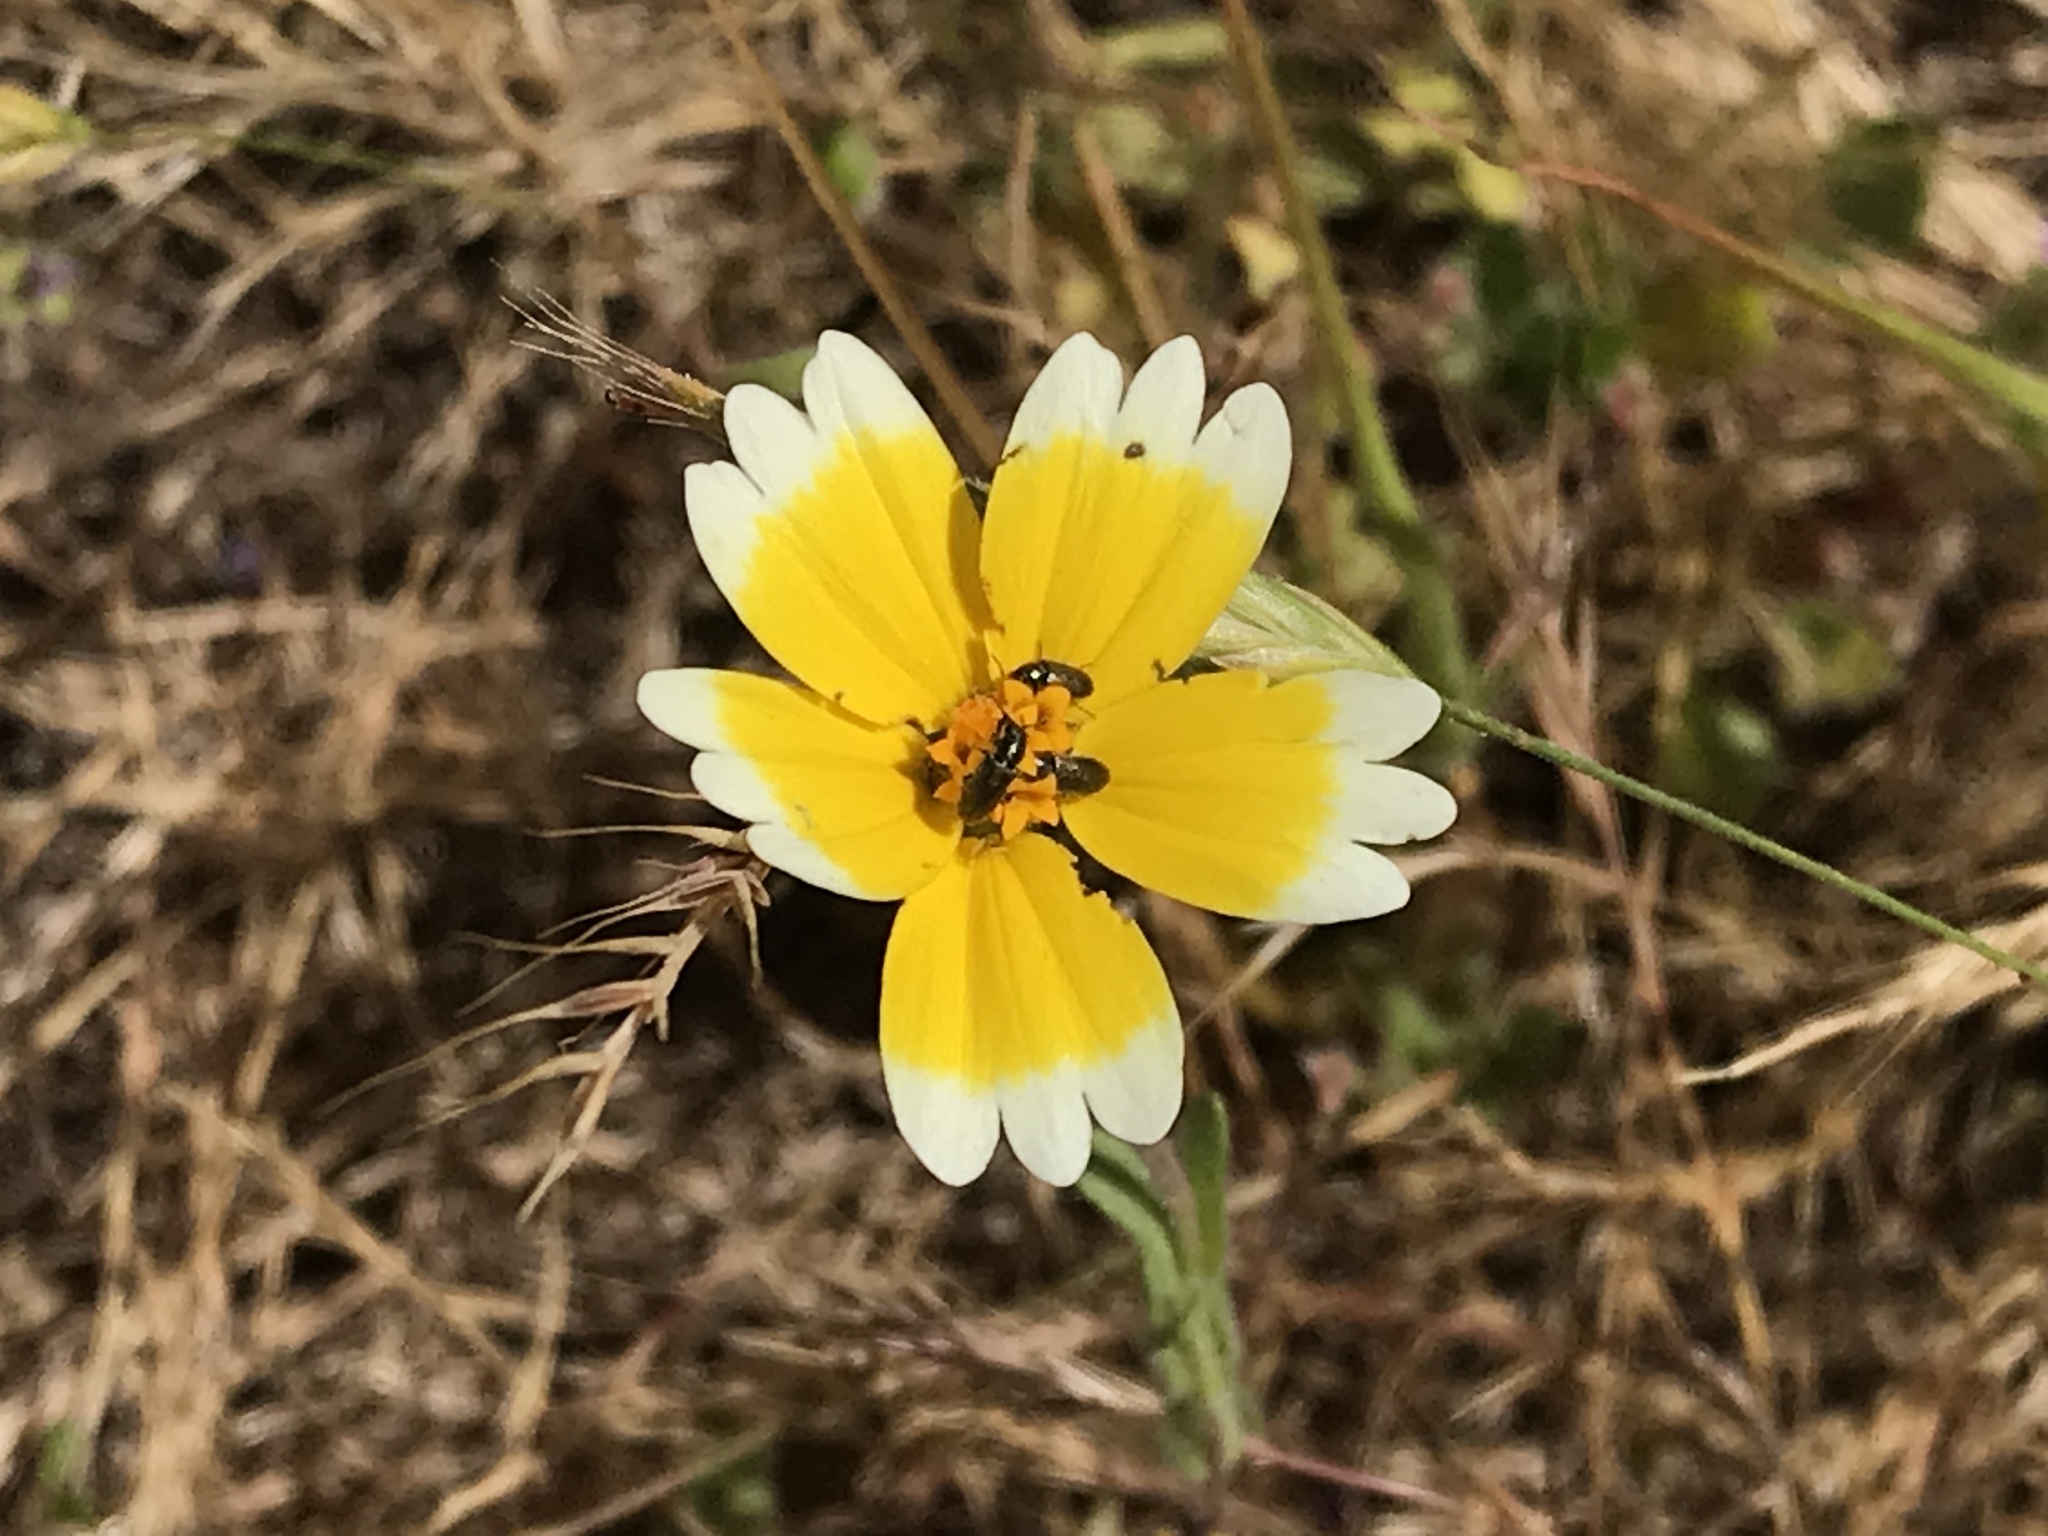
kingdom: Plantae
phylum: Tracheophyta
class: Magnoliopsida
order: Asterales
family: Asteraceae
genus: Layia
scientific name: Layia platyglossa
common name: Tidy-tips
